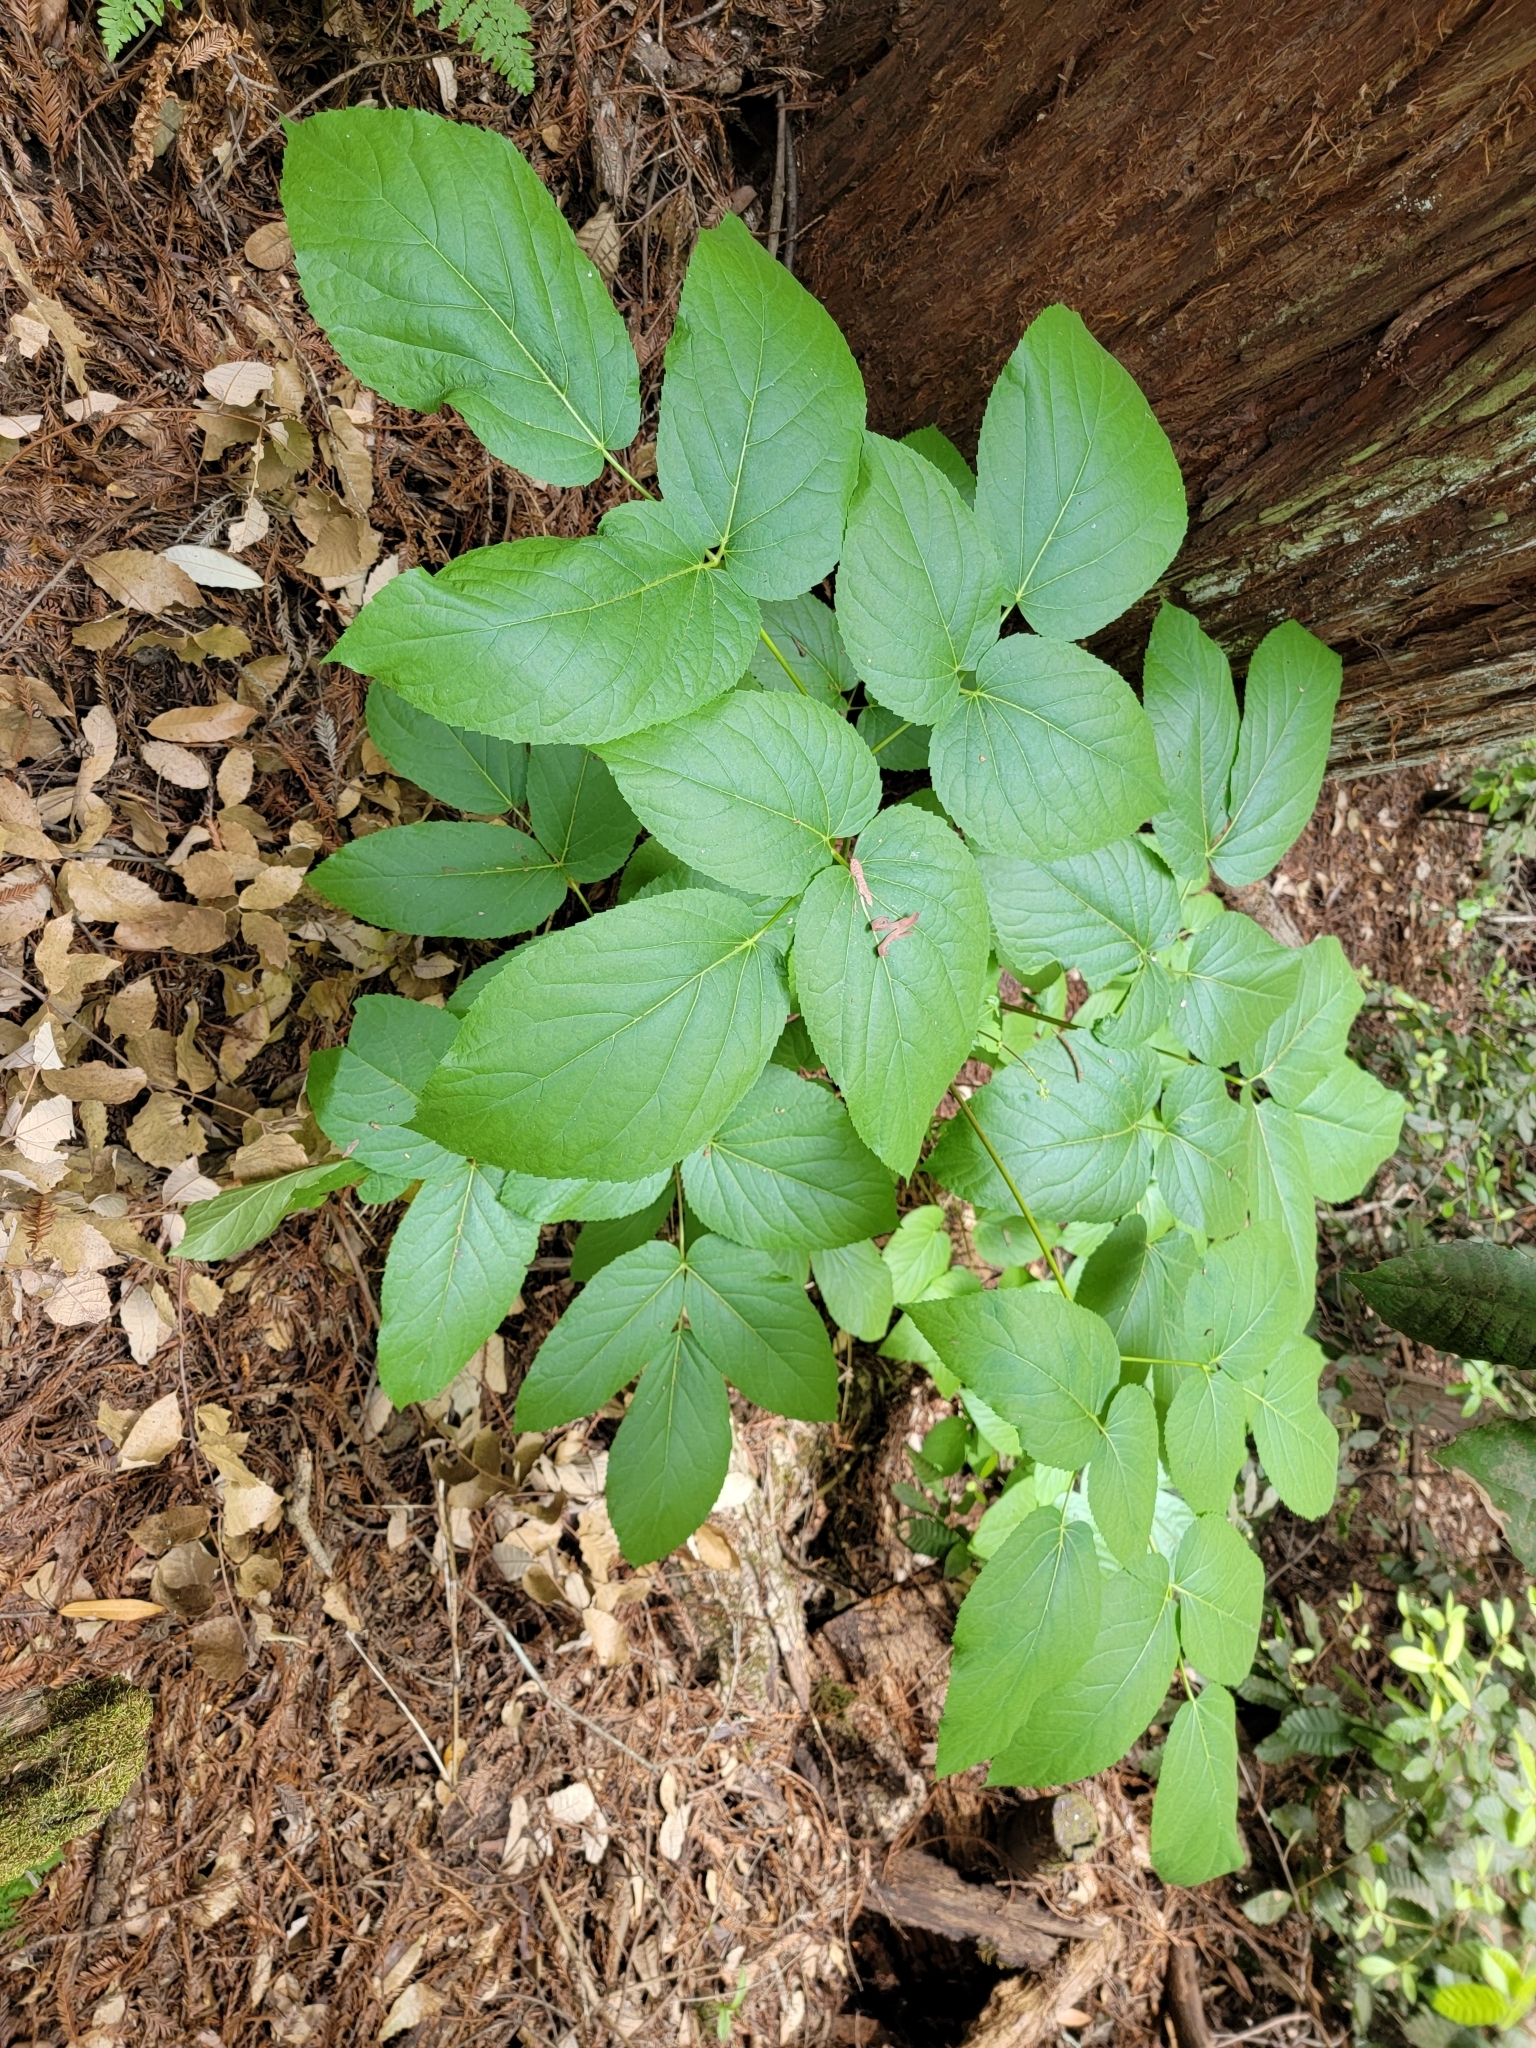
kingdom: Plantae
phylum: Tracheophyta
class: Magnoliopsida
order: Apiales
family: Araliaceae
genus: Aralia
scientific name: Aralia californica
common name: California-ginseng
